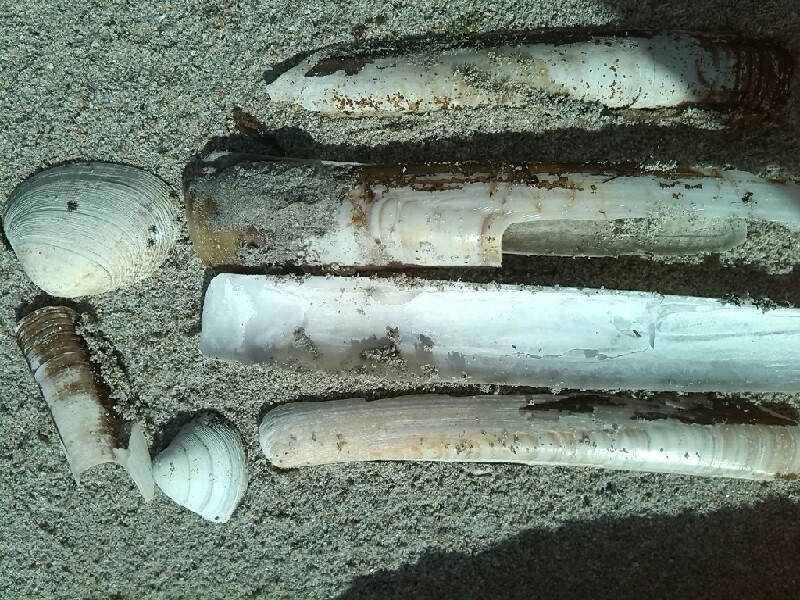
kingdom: Animalia
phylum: Mollusca
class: Bivalvia
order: Venerida
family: Mactridae
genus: Spisula
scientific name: Spisula solida
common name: Thick trough shell
